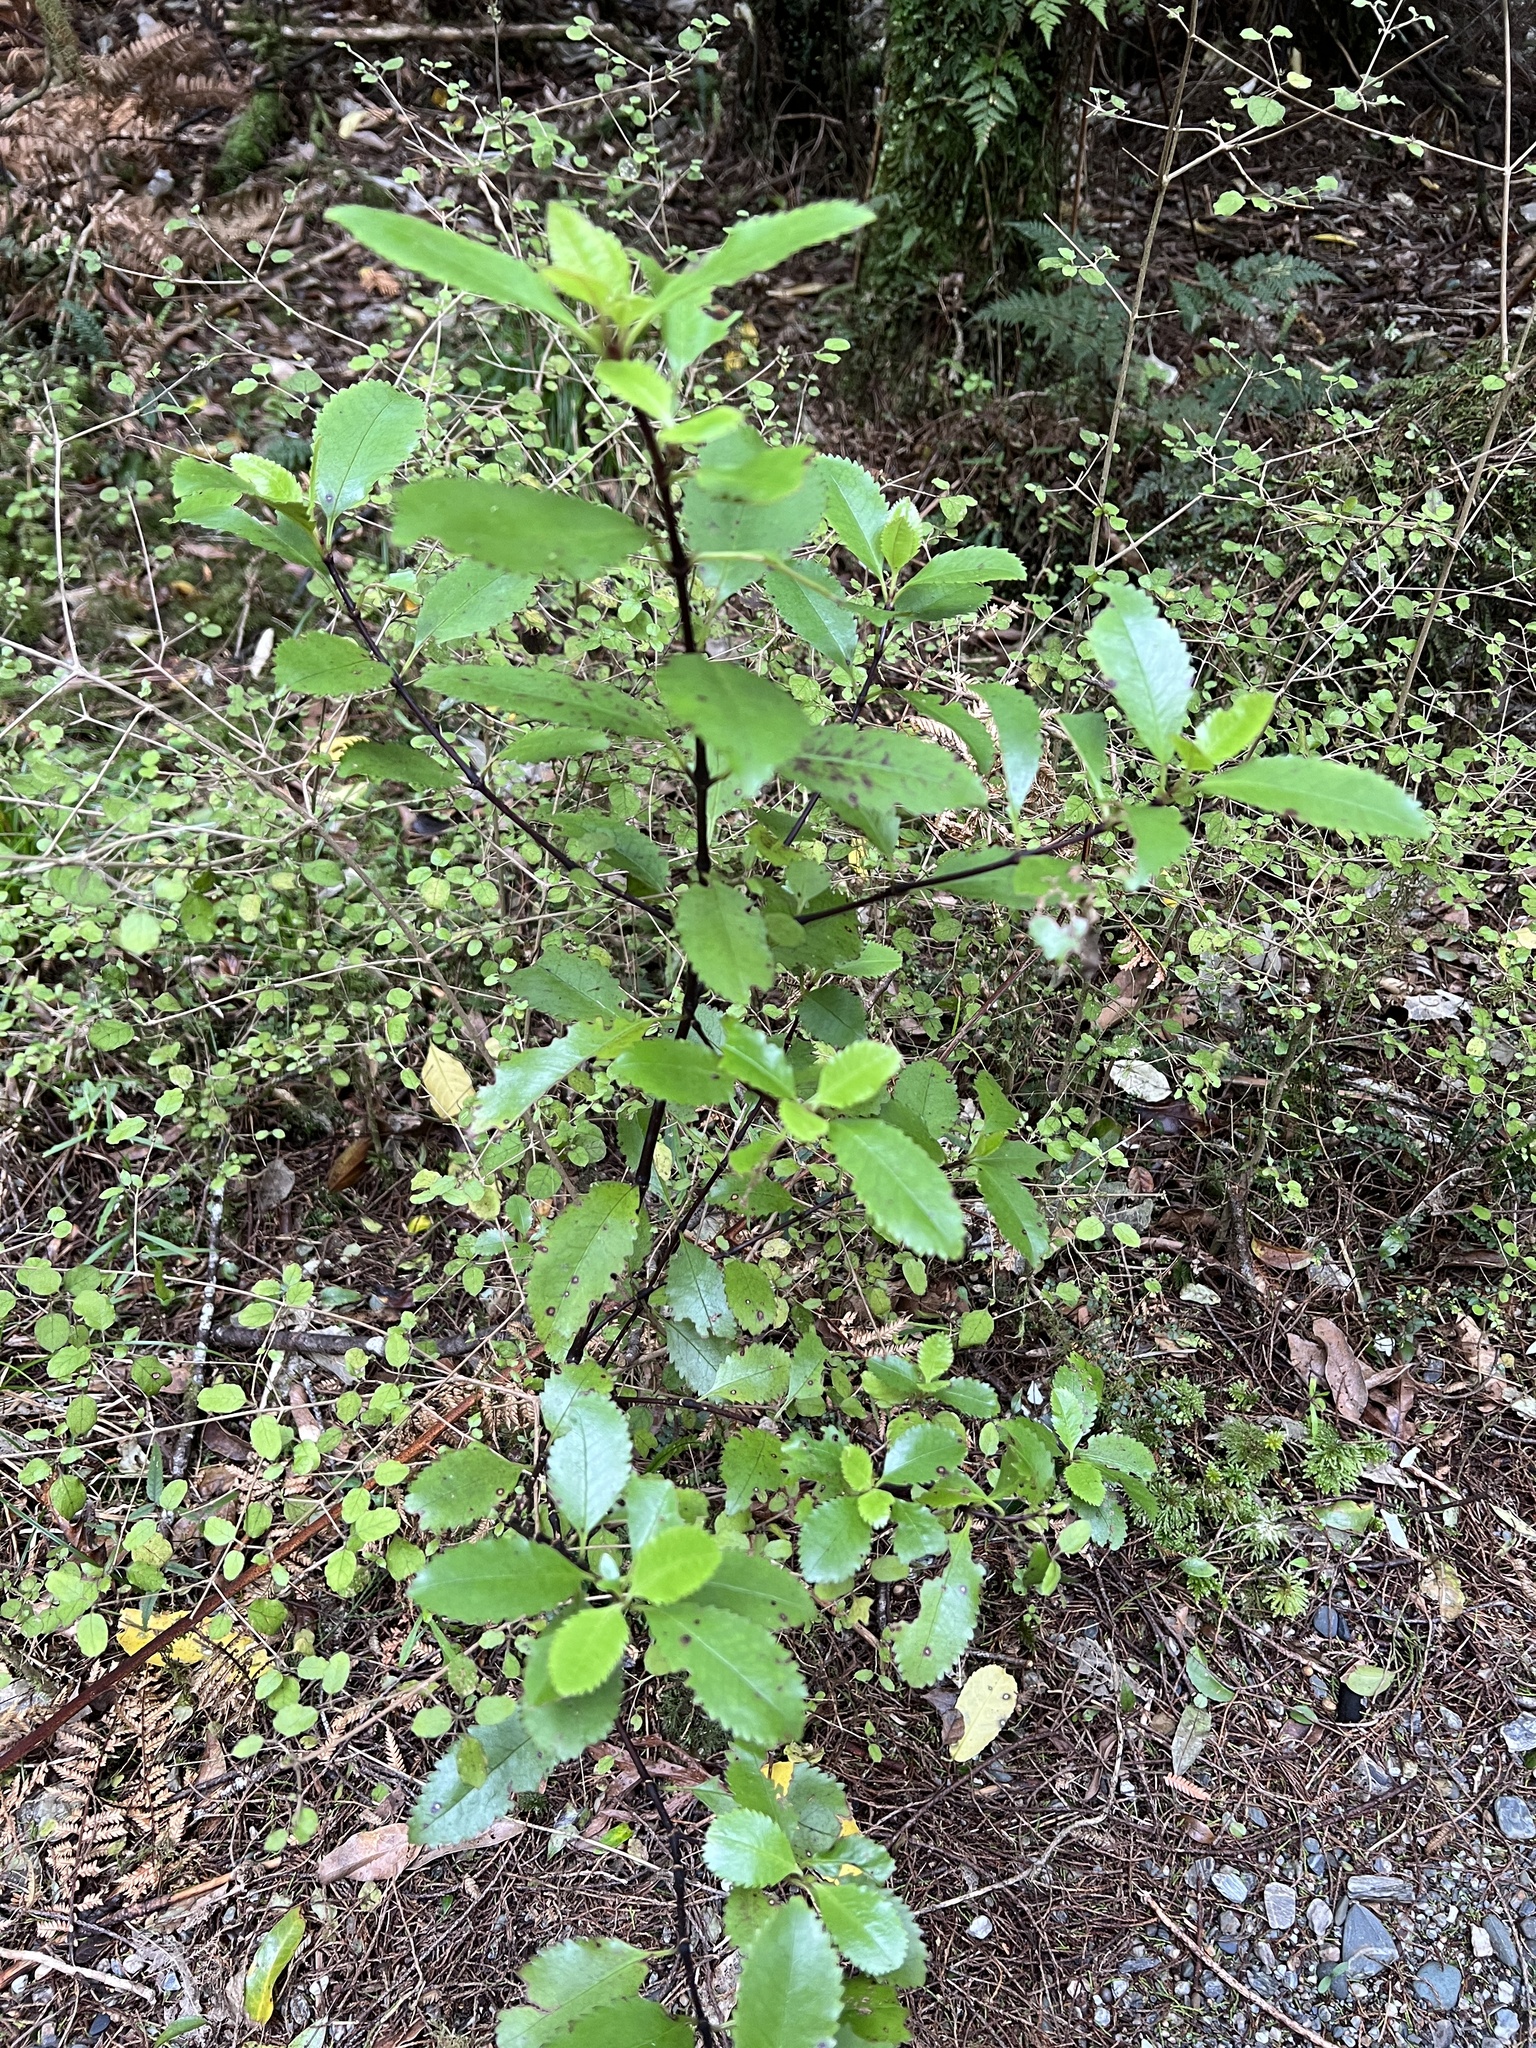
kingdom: Plantae
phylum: Tracheophyta
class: Magnoliopsida
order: Chloranthales
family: Chloranthaceae
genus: Ascarina
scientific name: Ascarina lucida
